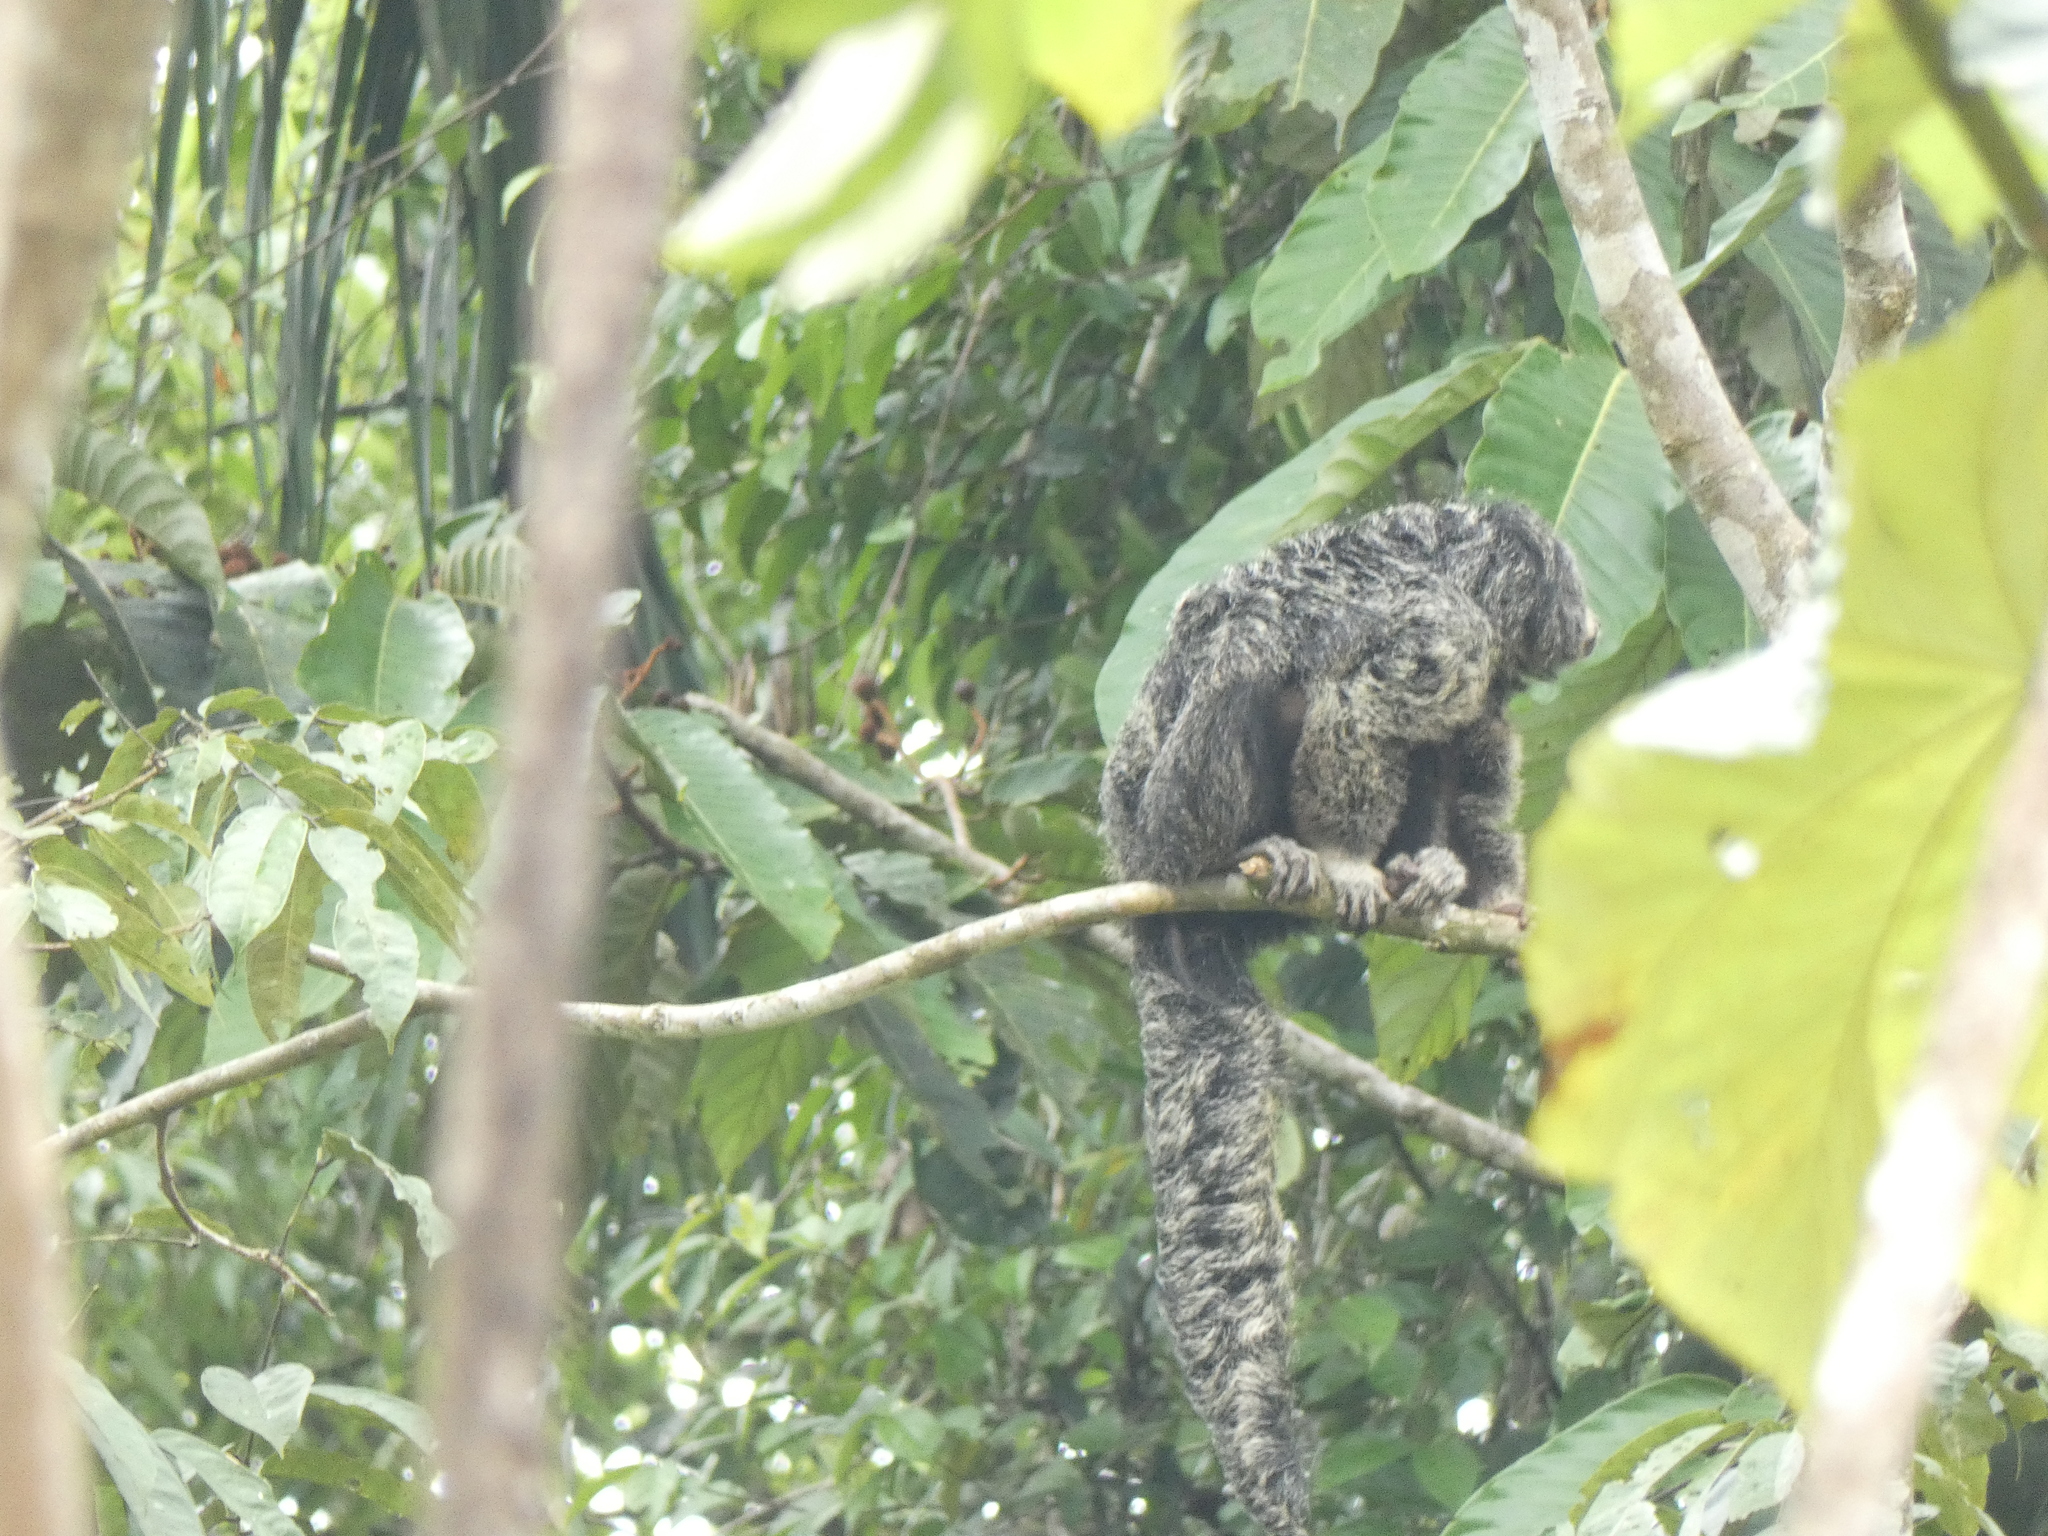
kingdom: Animalia
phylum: Chordata
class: Mammalia
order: Primates
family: Pitheciidae
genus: Pithecia
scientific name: Pithecia napensis
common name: Napo saki
